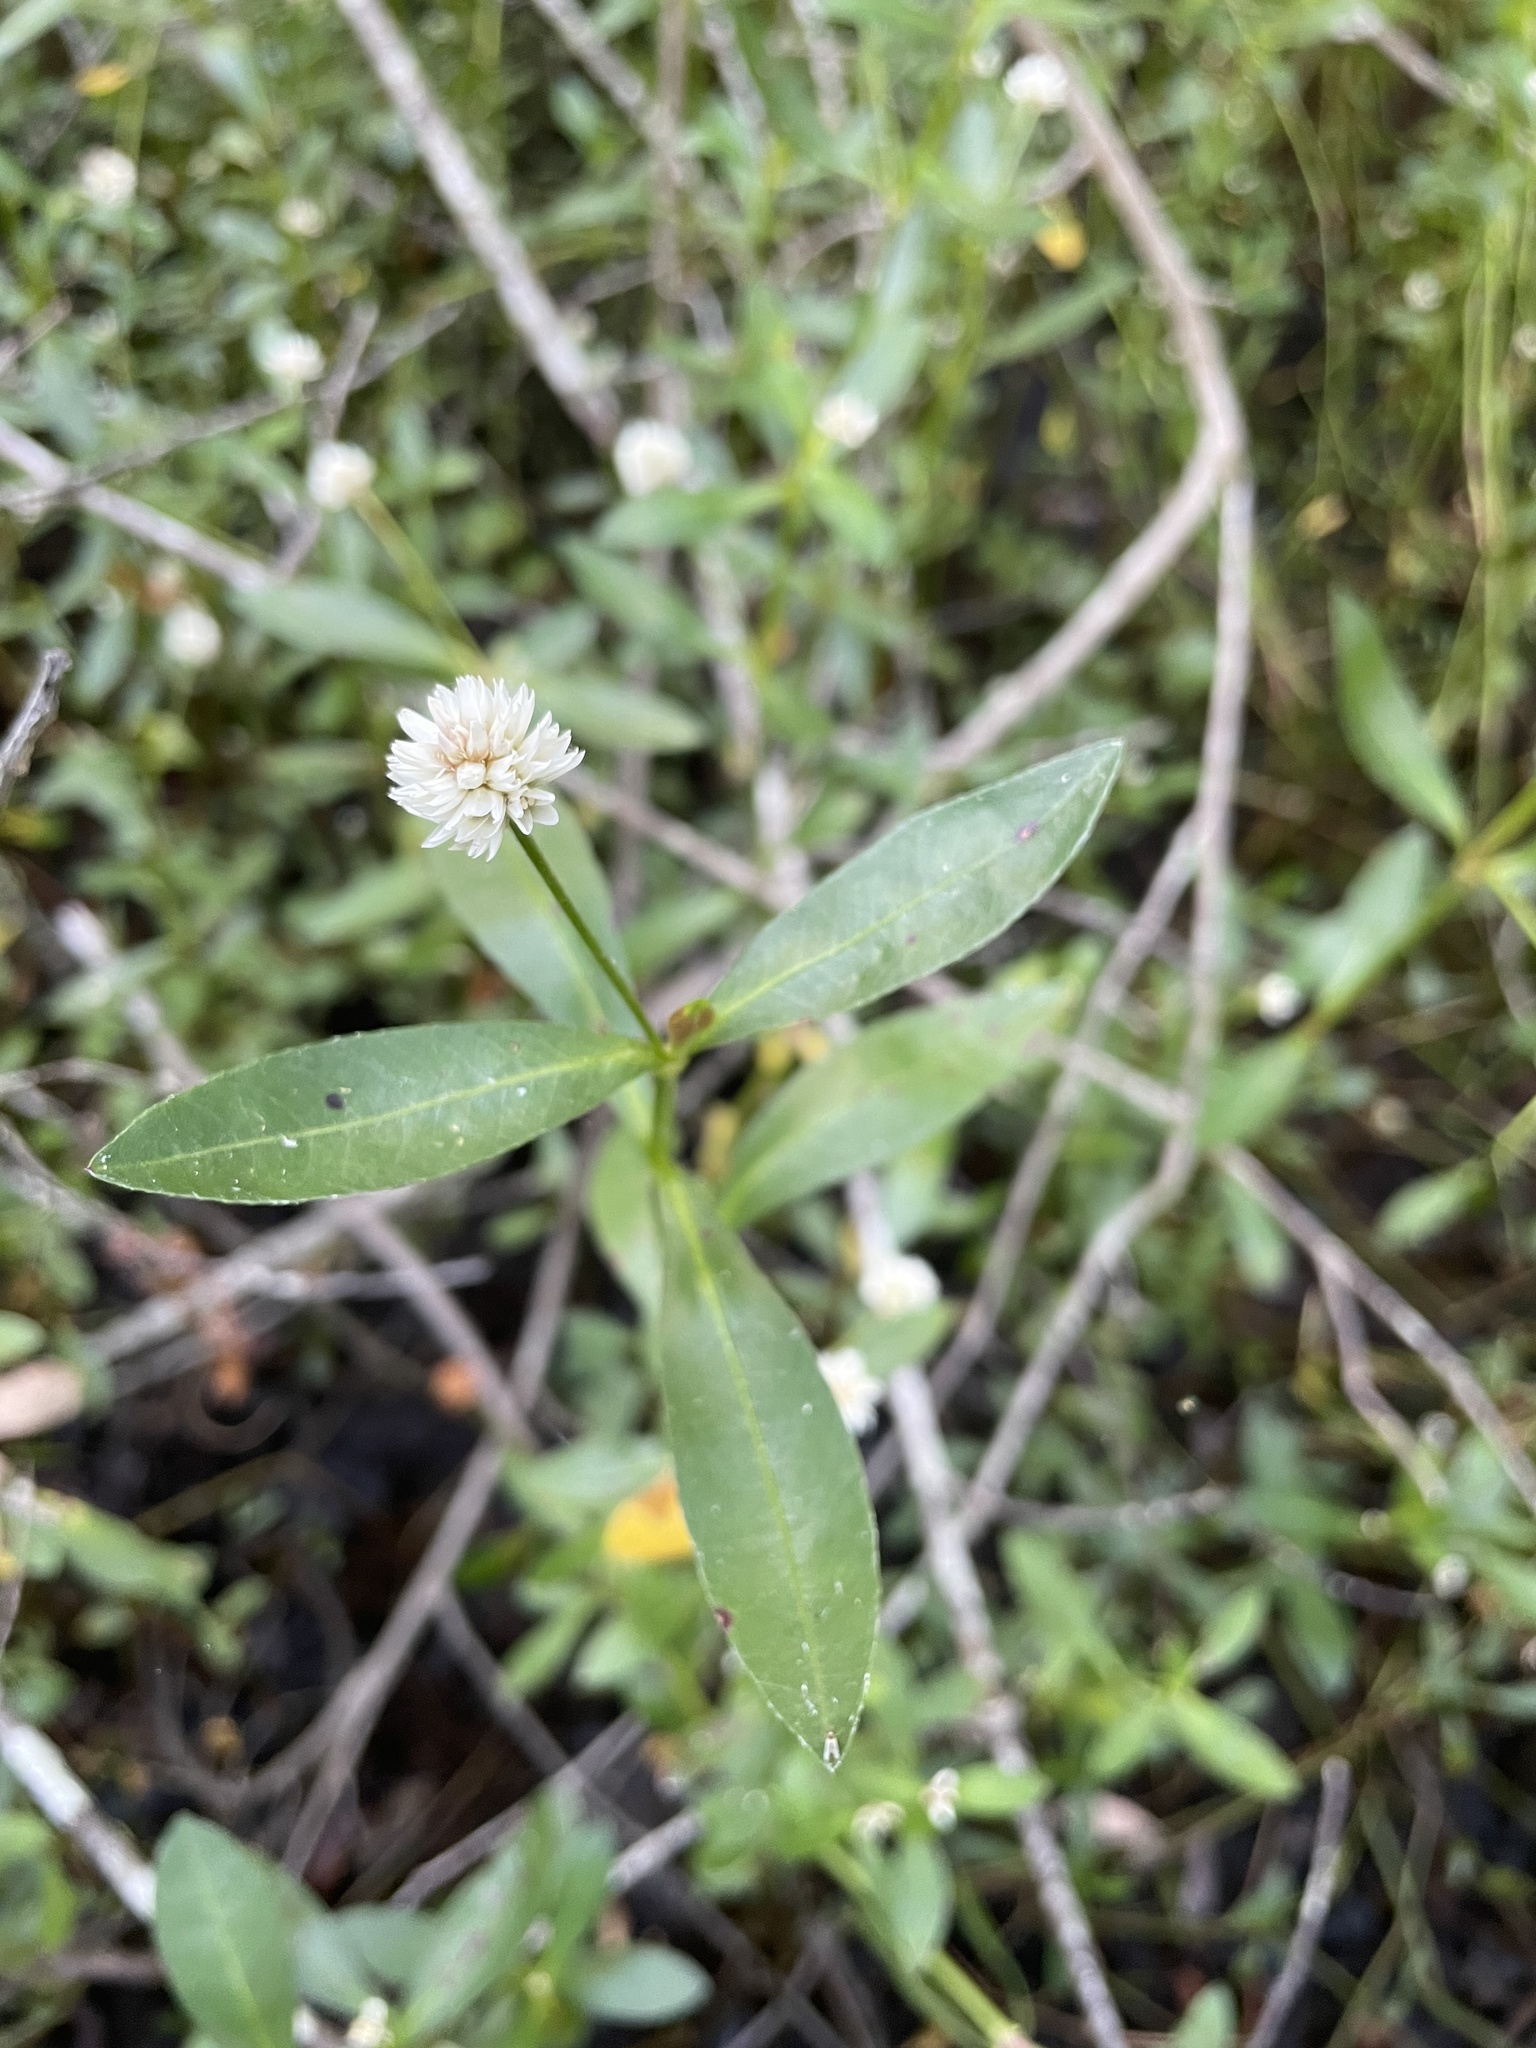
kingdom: Plantae
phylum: Tracheophyta
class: Magnoliopsida
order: Caryophyllales
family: Amaranthaceae
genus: Alternanthera
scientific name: Alternanthera philoxeroides
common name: Alligatorweed
